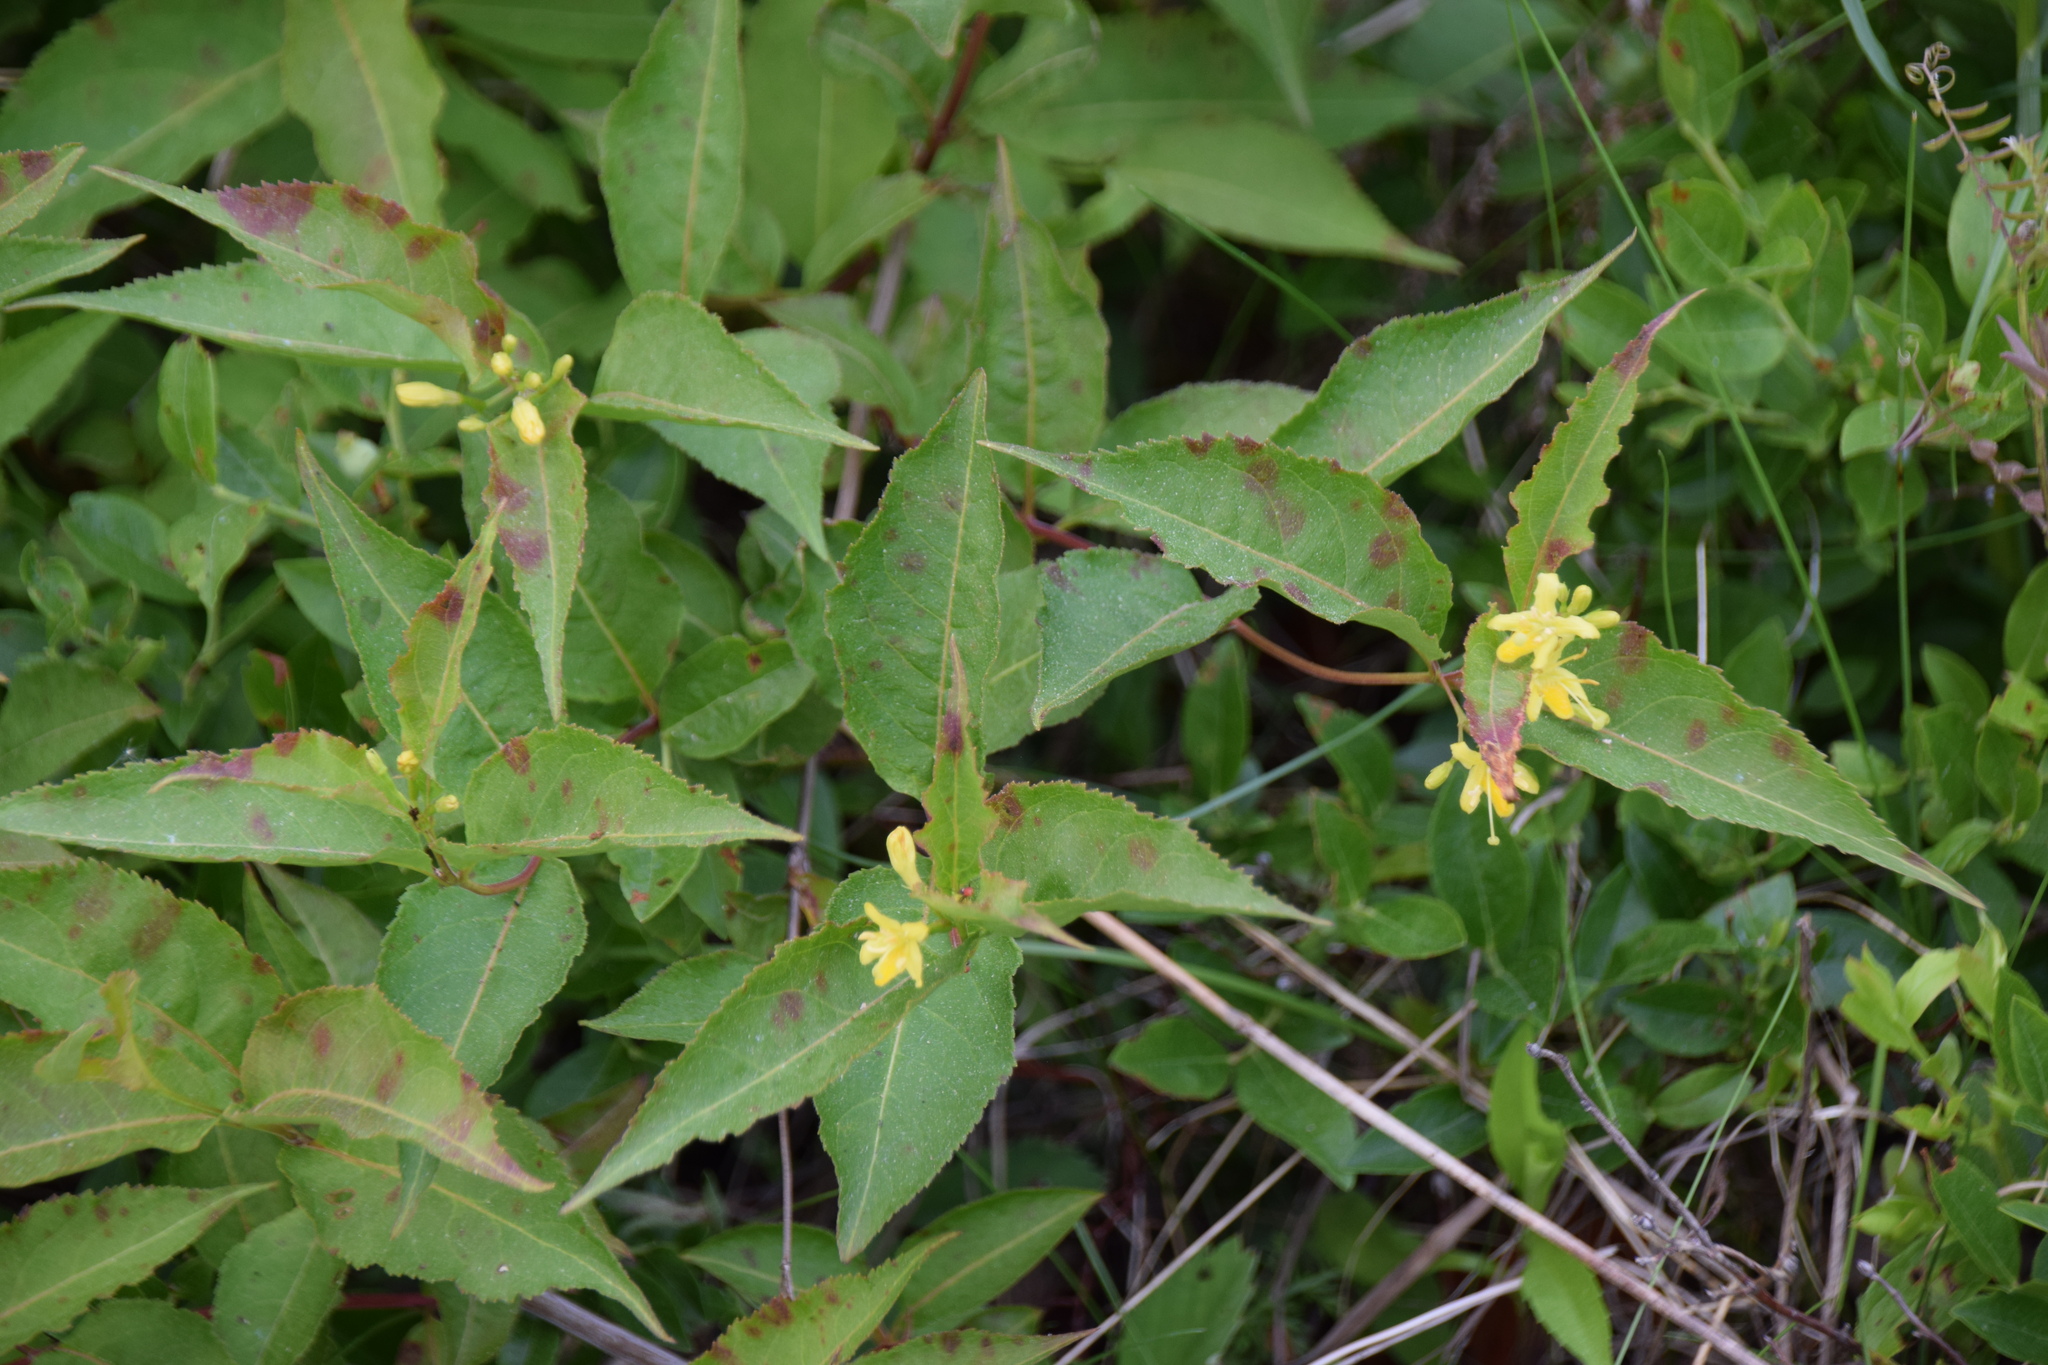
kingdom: Plantae
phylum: Tracheophyta
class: Magnoliopsida
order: Dipsacales
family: Caprifoliaceae
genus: Diervilla
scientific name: Diervilla lonicera
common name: Bush-honeysuckle
